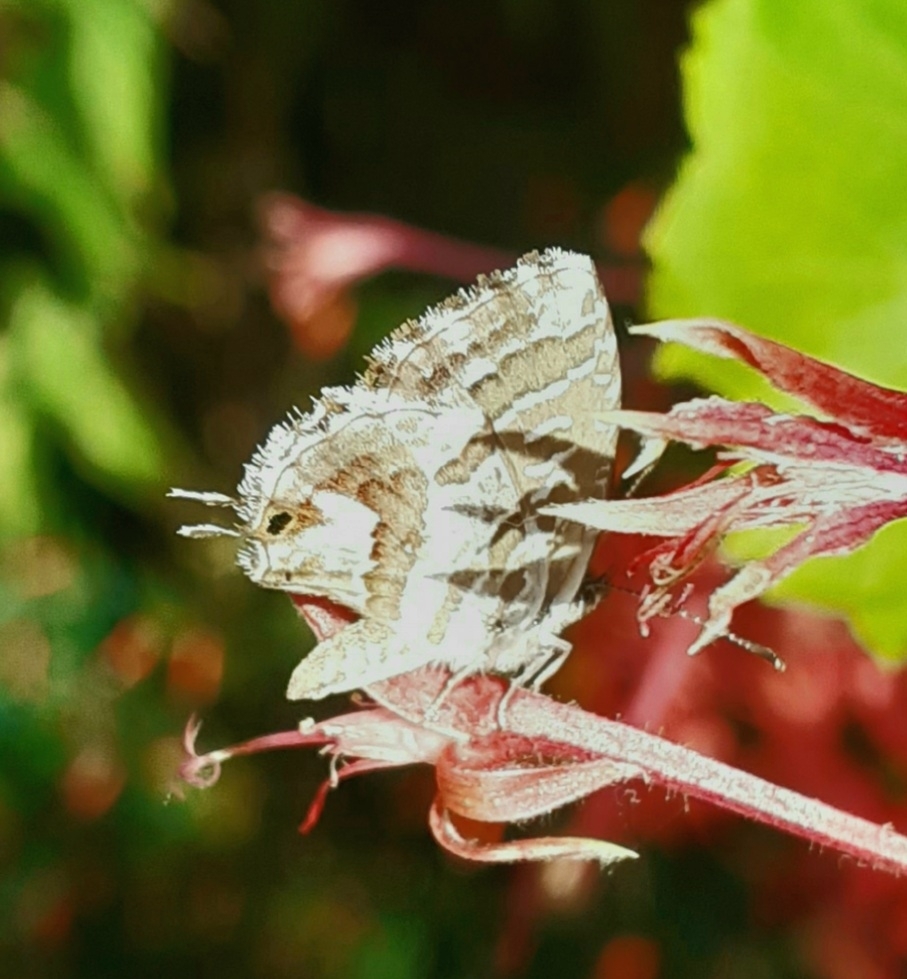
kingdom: Animalia
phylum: Arthropoda
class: Insecta
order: Lepidoptera
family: Lycaenidae
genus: Cacyreus
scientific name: Cacyreus marshalli
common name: Geranium bronze
